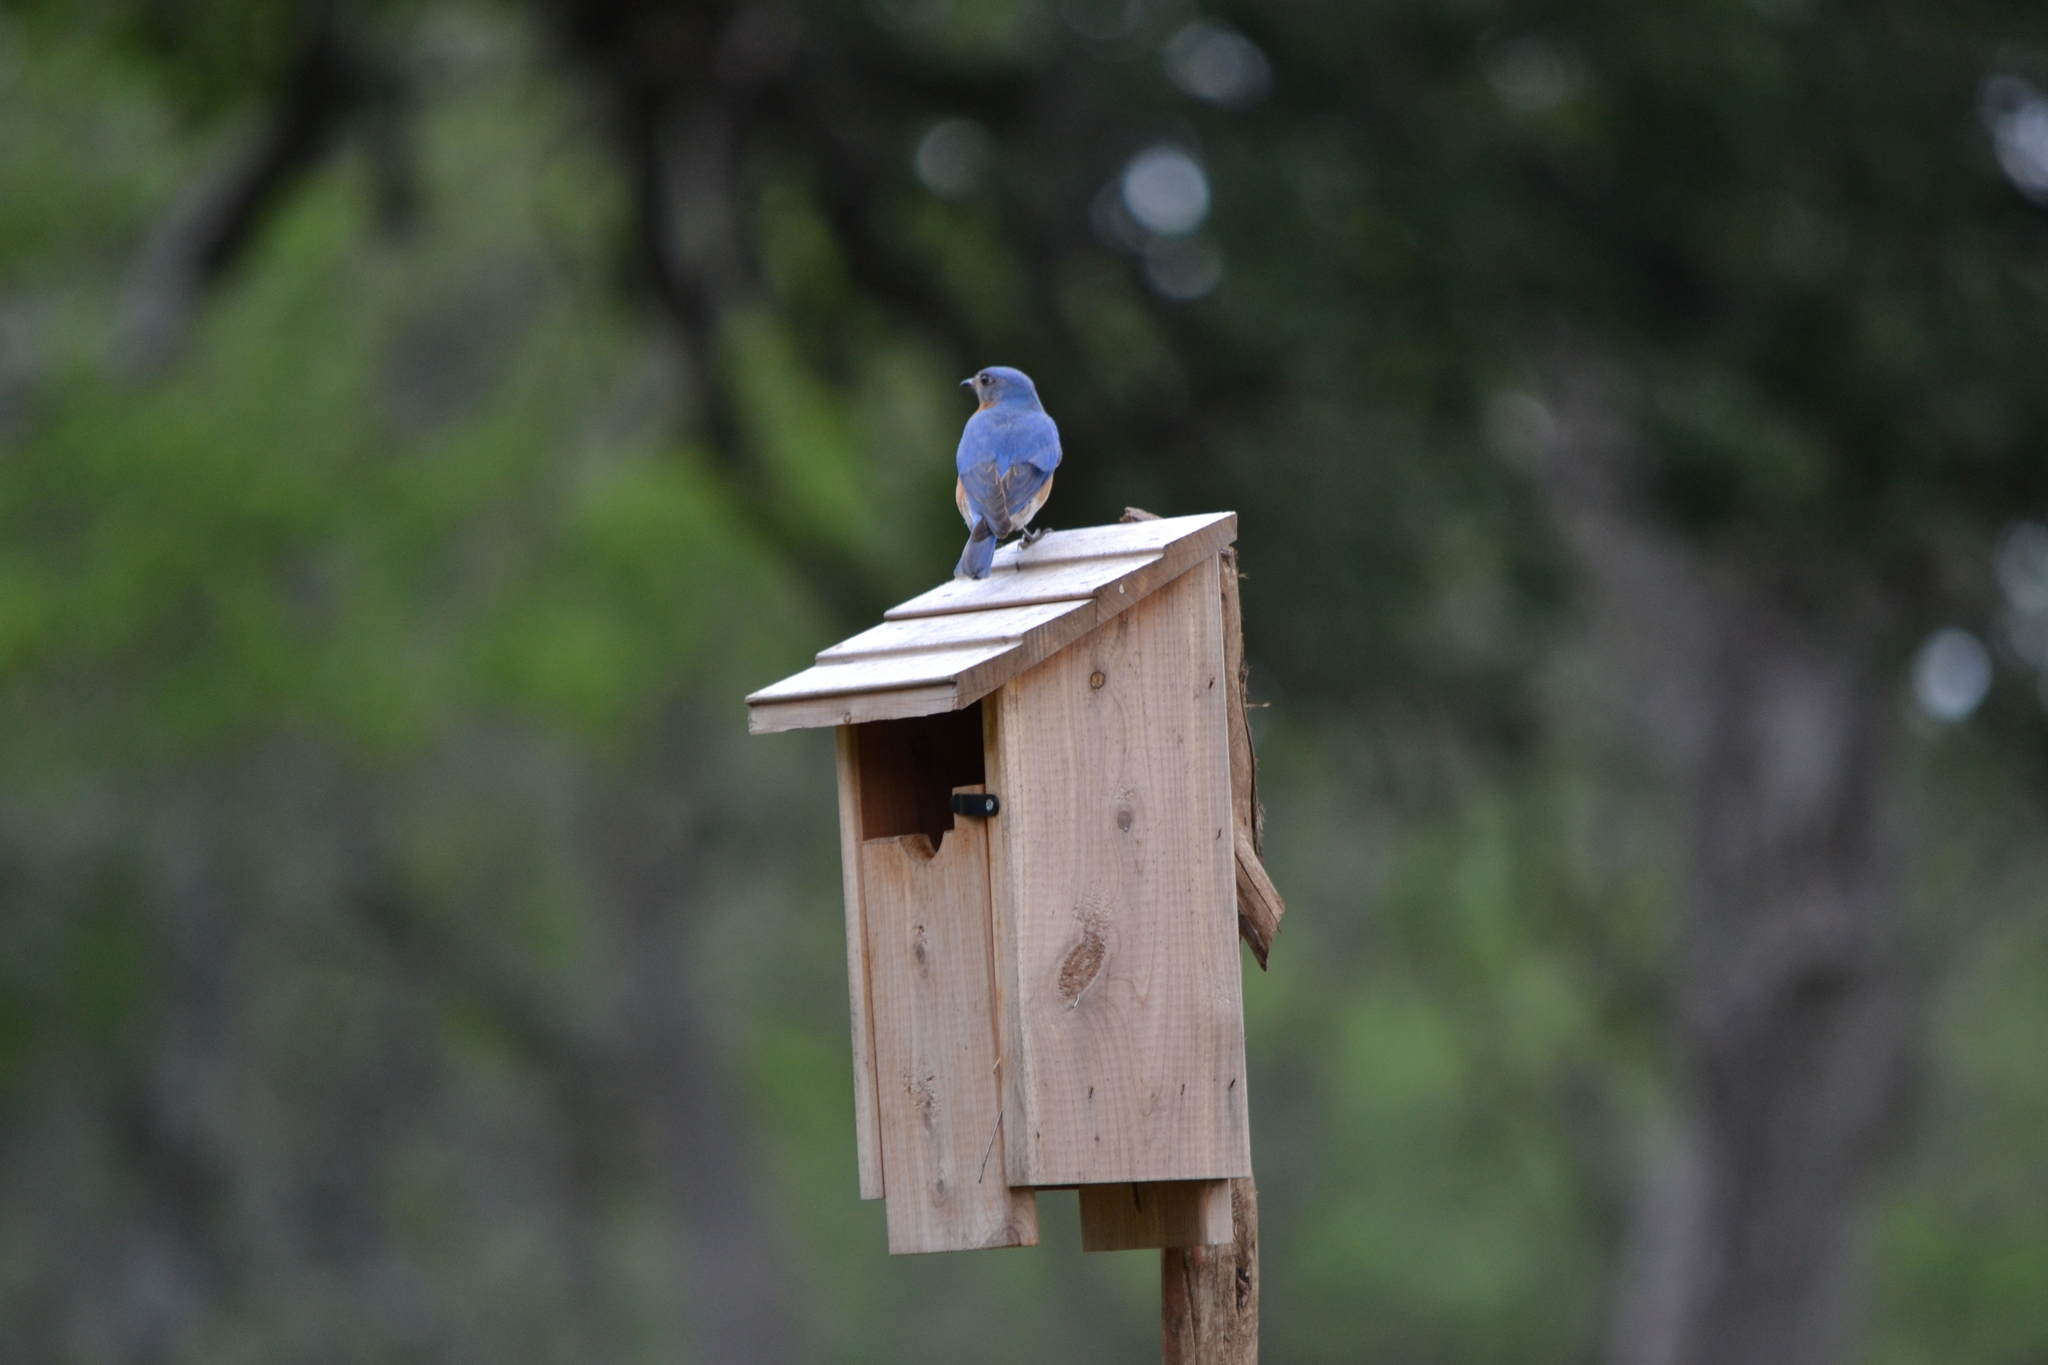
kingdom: Animalia
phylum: Chordata
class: Aves
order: Passeriformes
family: Turdidae
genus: Sialia
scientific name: Sialia sialis
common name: Eastern bluebird
